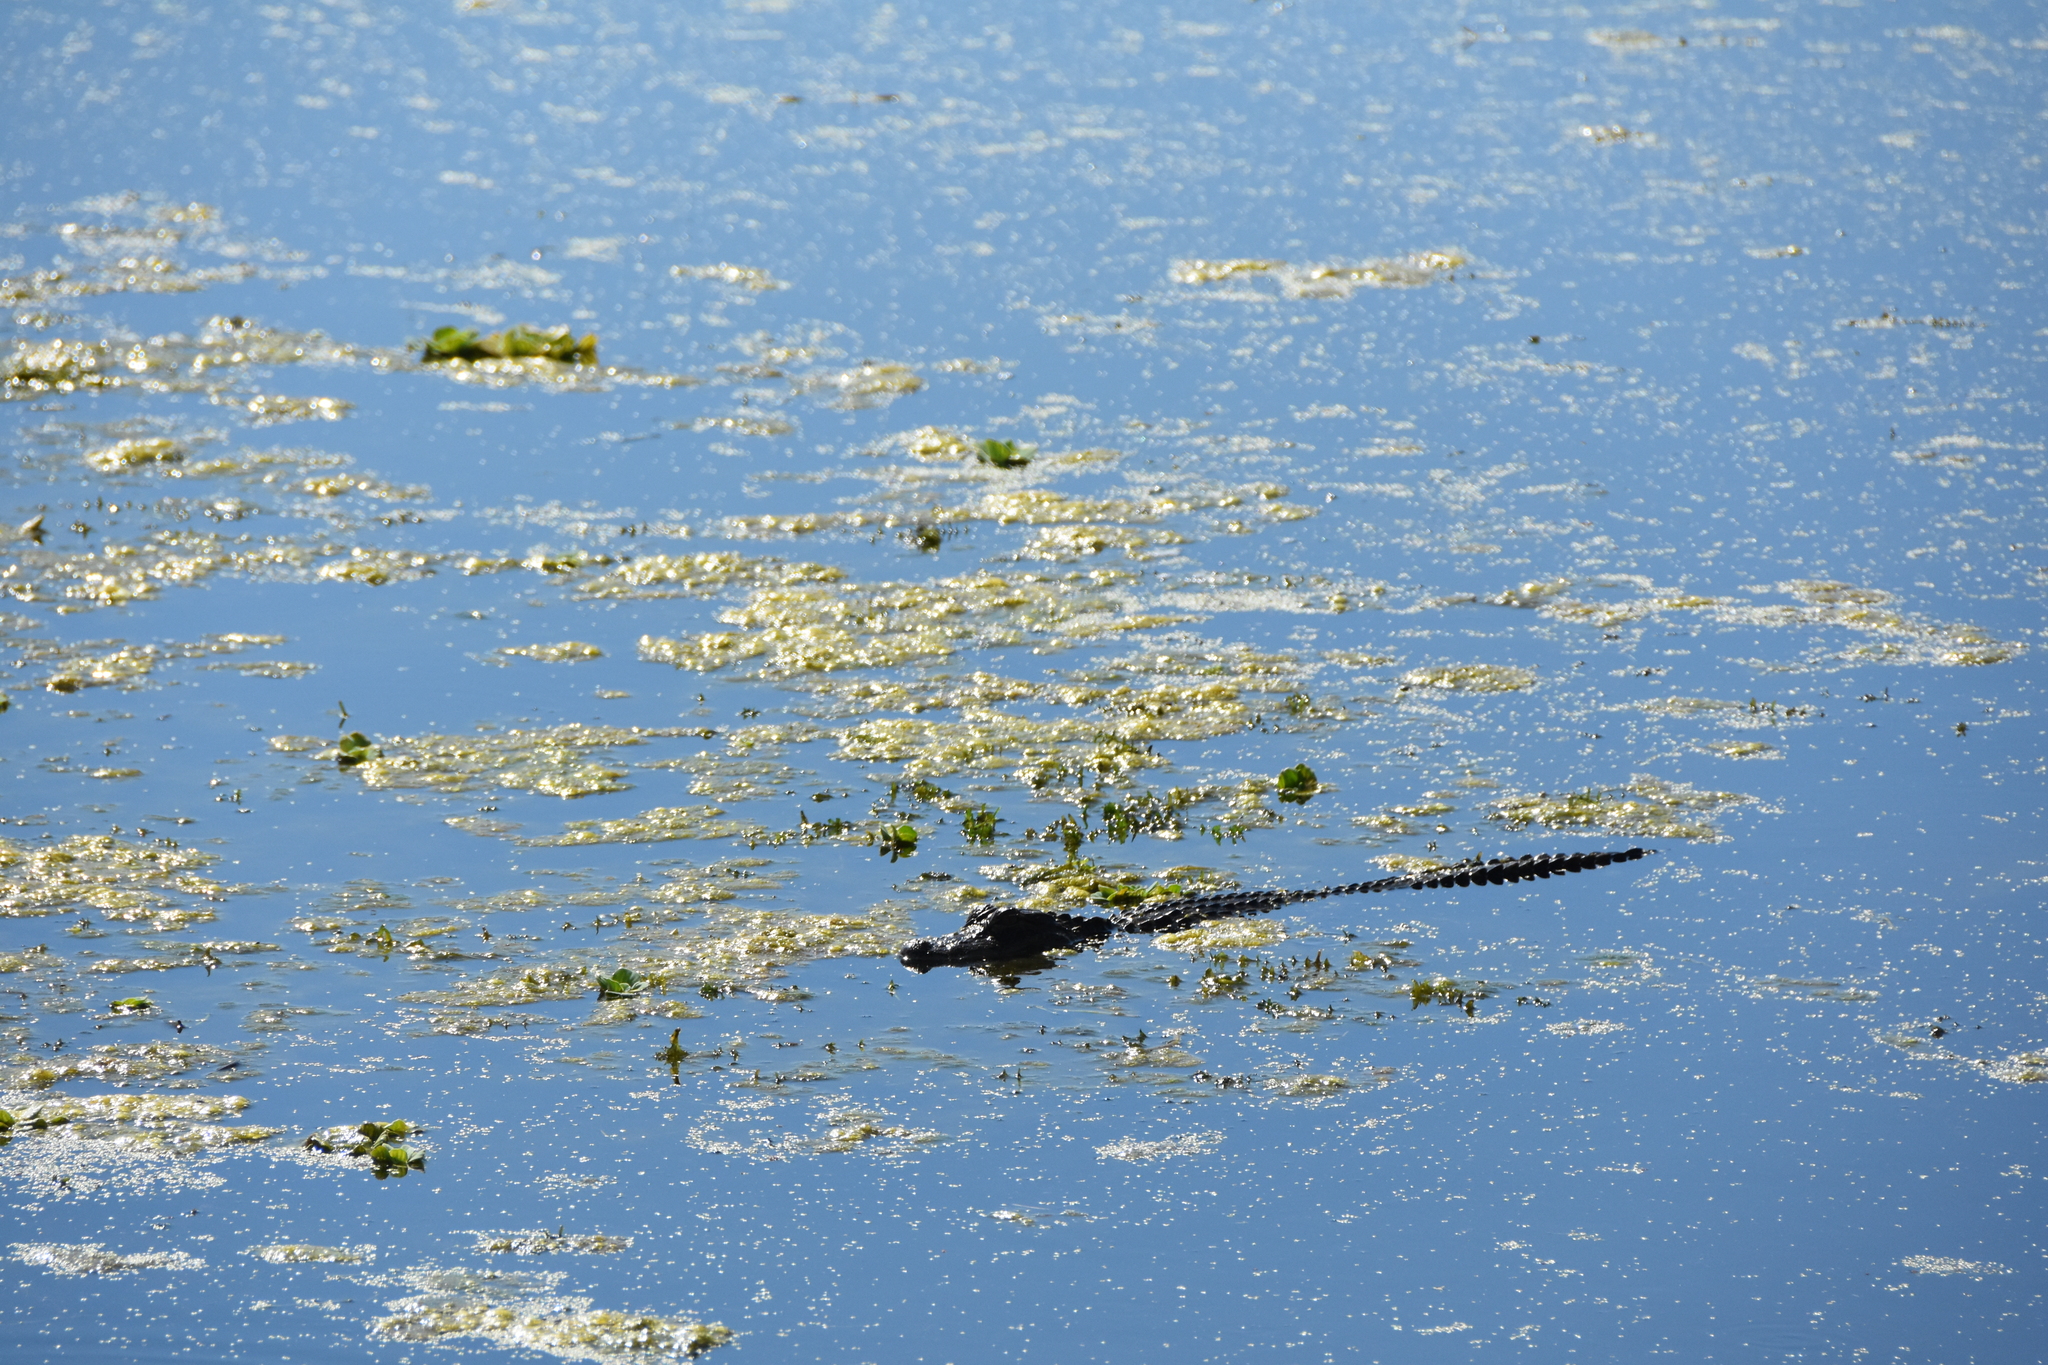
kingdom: Animalia
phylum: Chordata
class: Crocodylia
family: Alligatoridae
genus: Alligator
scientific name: Alligator mississippiensis
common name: American alligator
